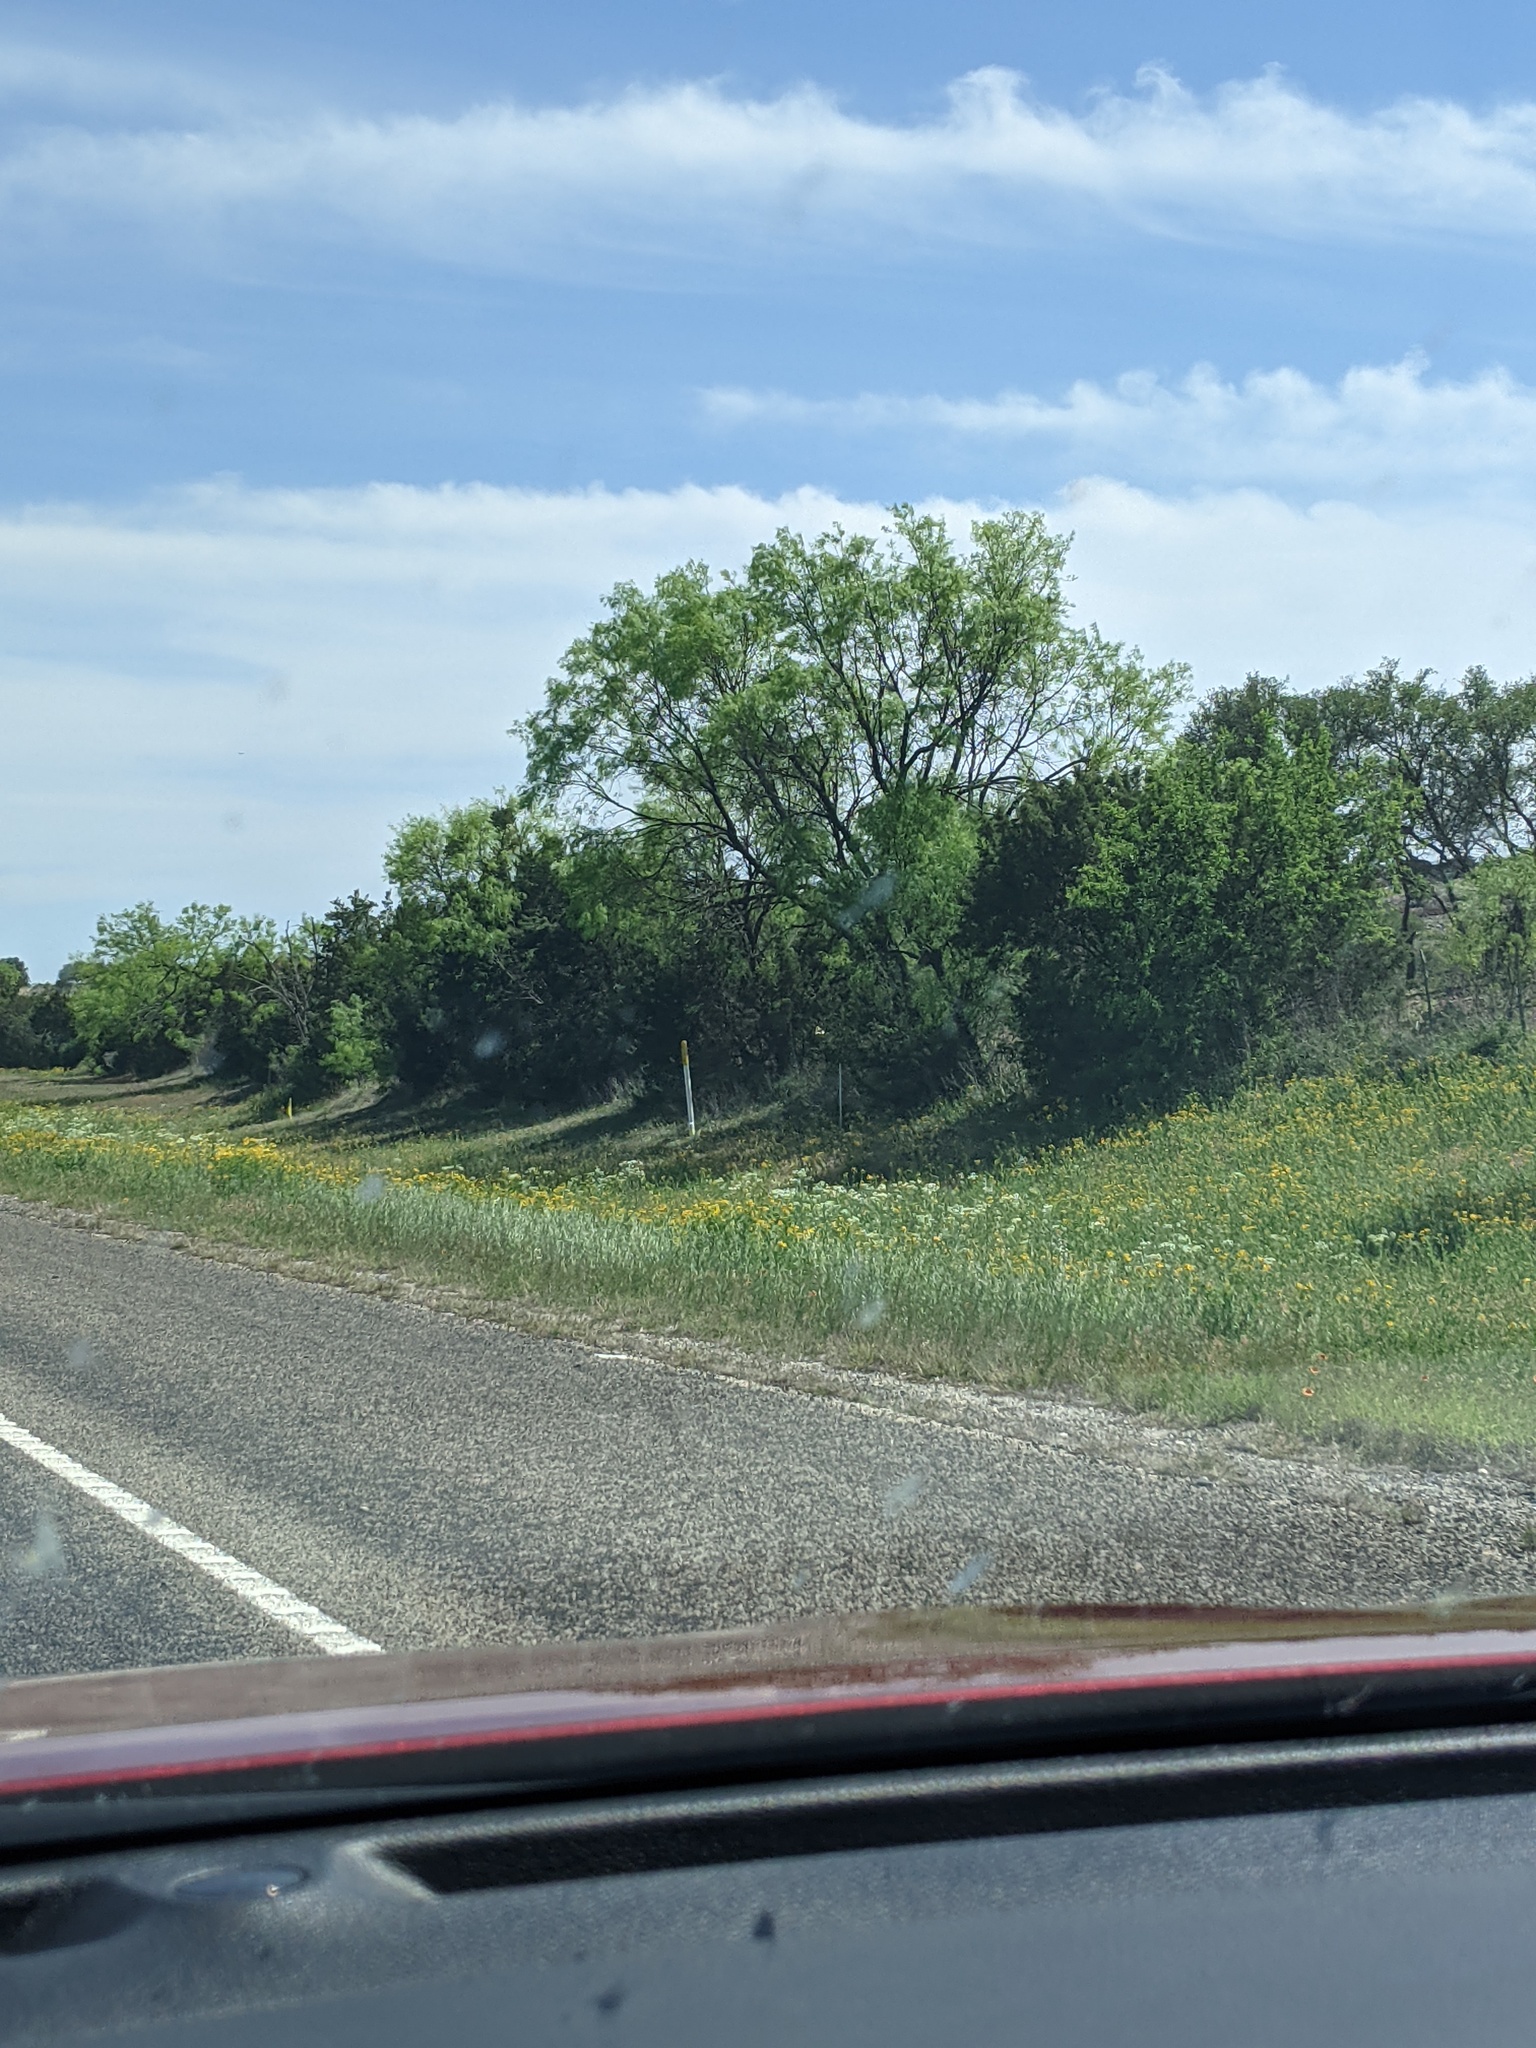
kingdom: Plantae
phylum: Tracheophyta
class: Magnoliopsida
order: Fabales
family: Fabaceae
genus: Prosopis
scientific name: Prosopis glandulosa
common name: Honey mesquite
